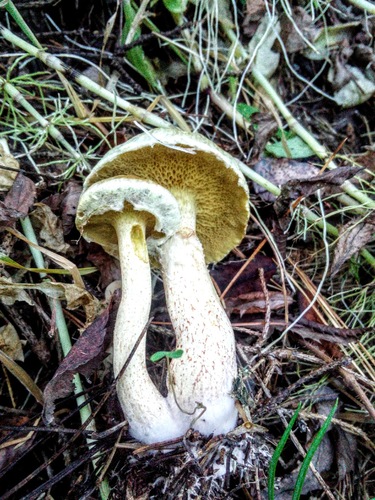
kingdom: Fungi
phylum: Basidiomycota
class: Agaricomycetes
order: Boletales
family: Suillaceae
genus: Suillus
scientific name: Suillus americanus
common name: Chicken fat mushroom
